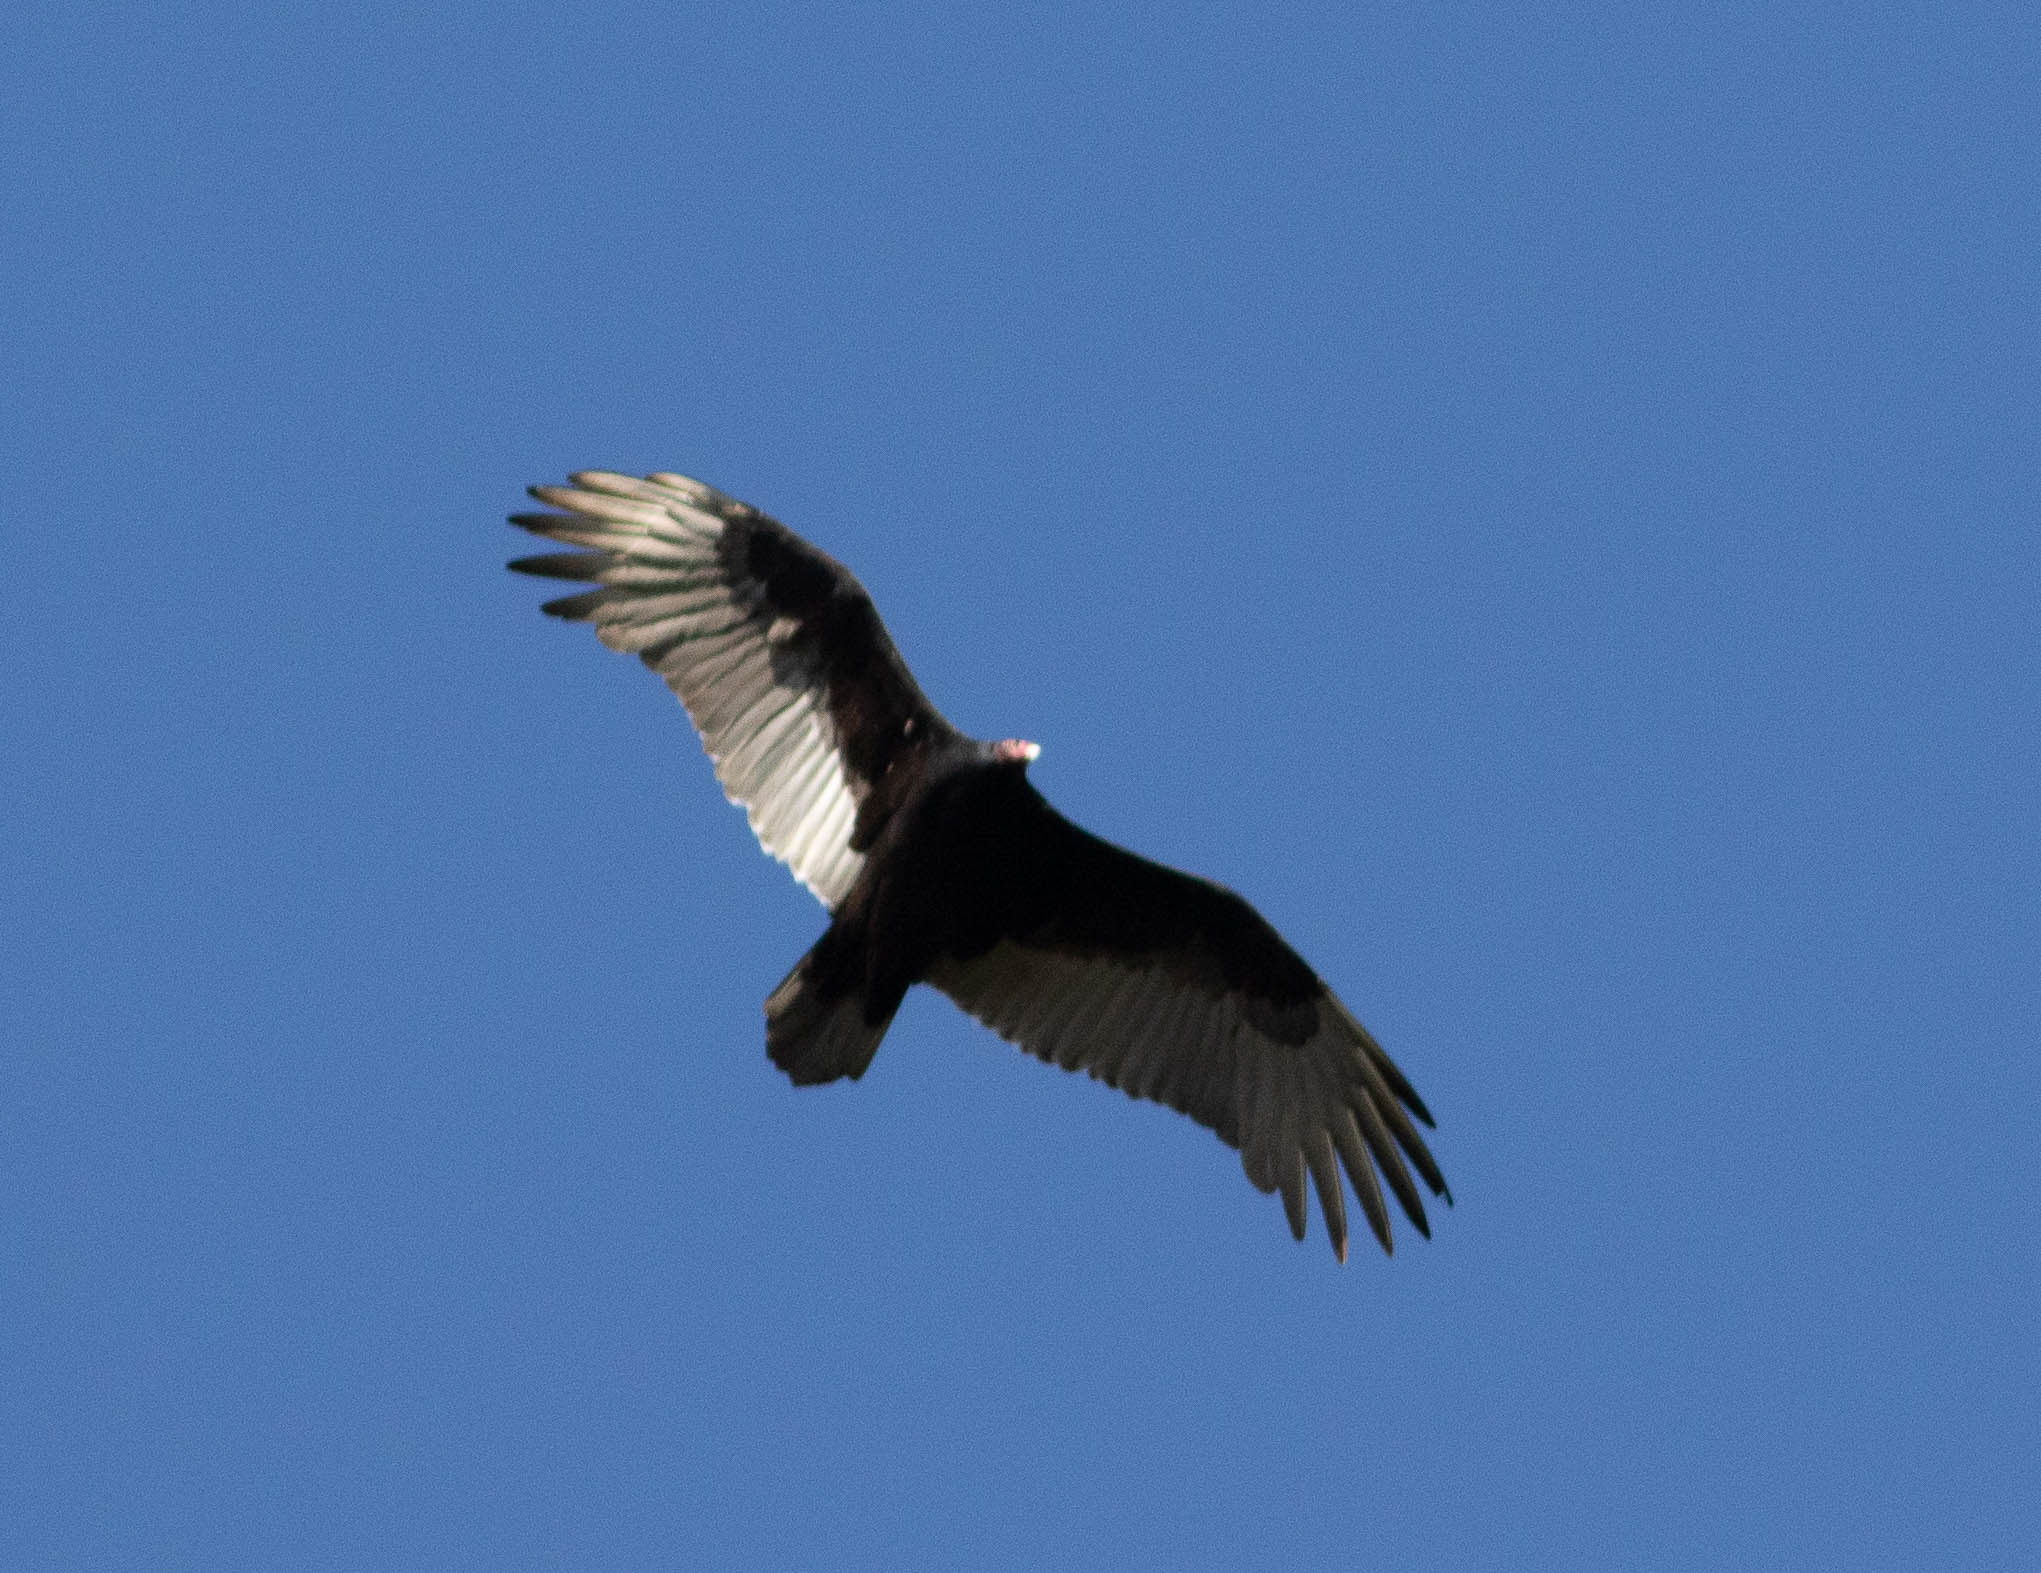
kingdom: Animalia
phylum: Chordata
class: Aves
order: Accipitriformes
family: Cathartidae
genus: Cathartes
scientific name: Cathartes aura
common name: Turkey vulture
